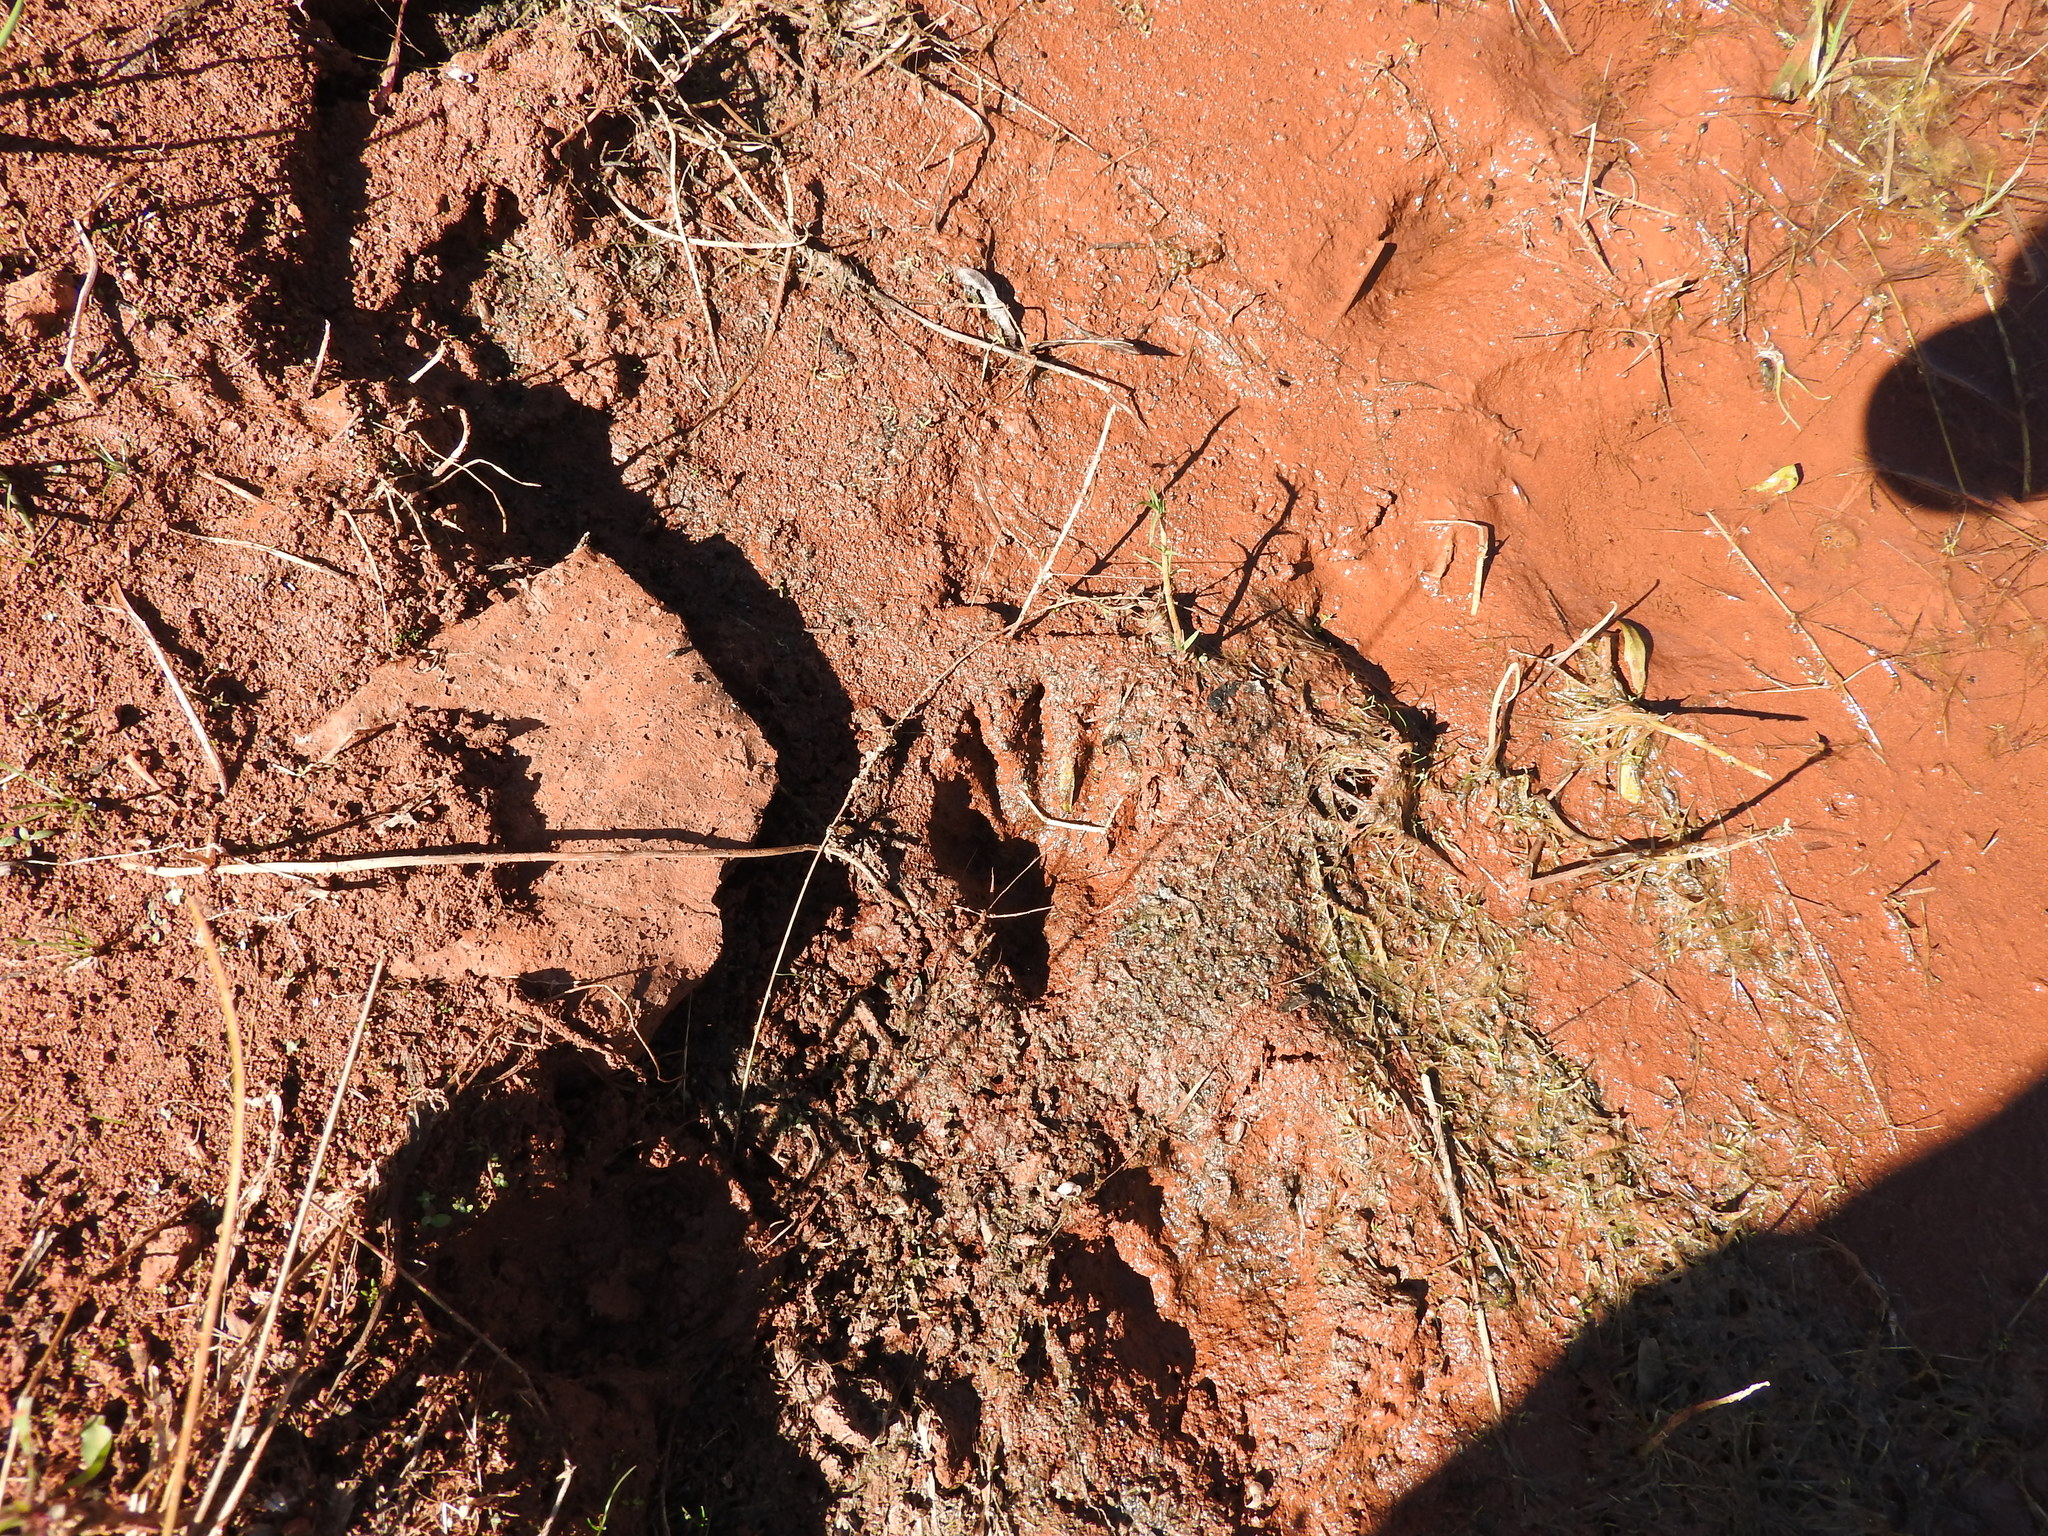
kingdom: Animalia
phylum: Chordata
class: Mammalia
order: Carnivora
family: Procyonidae
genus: Procyon
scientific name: Procyon lotor
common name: Raccoon
